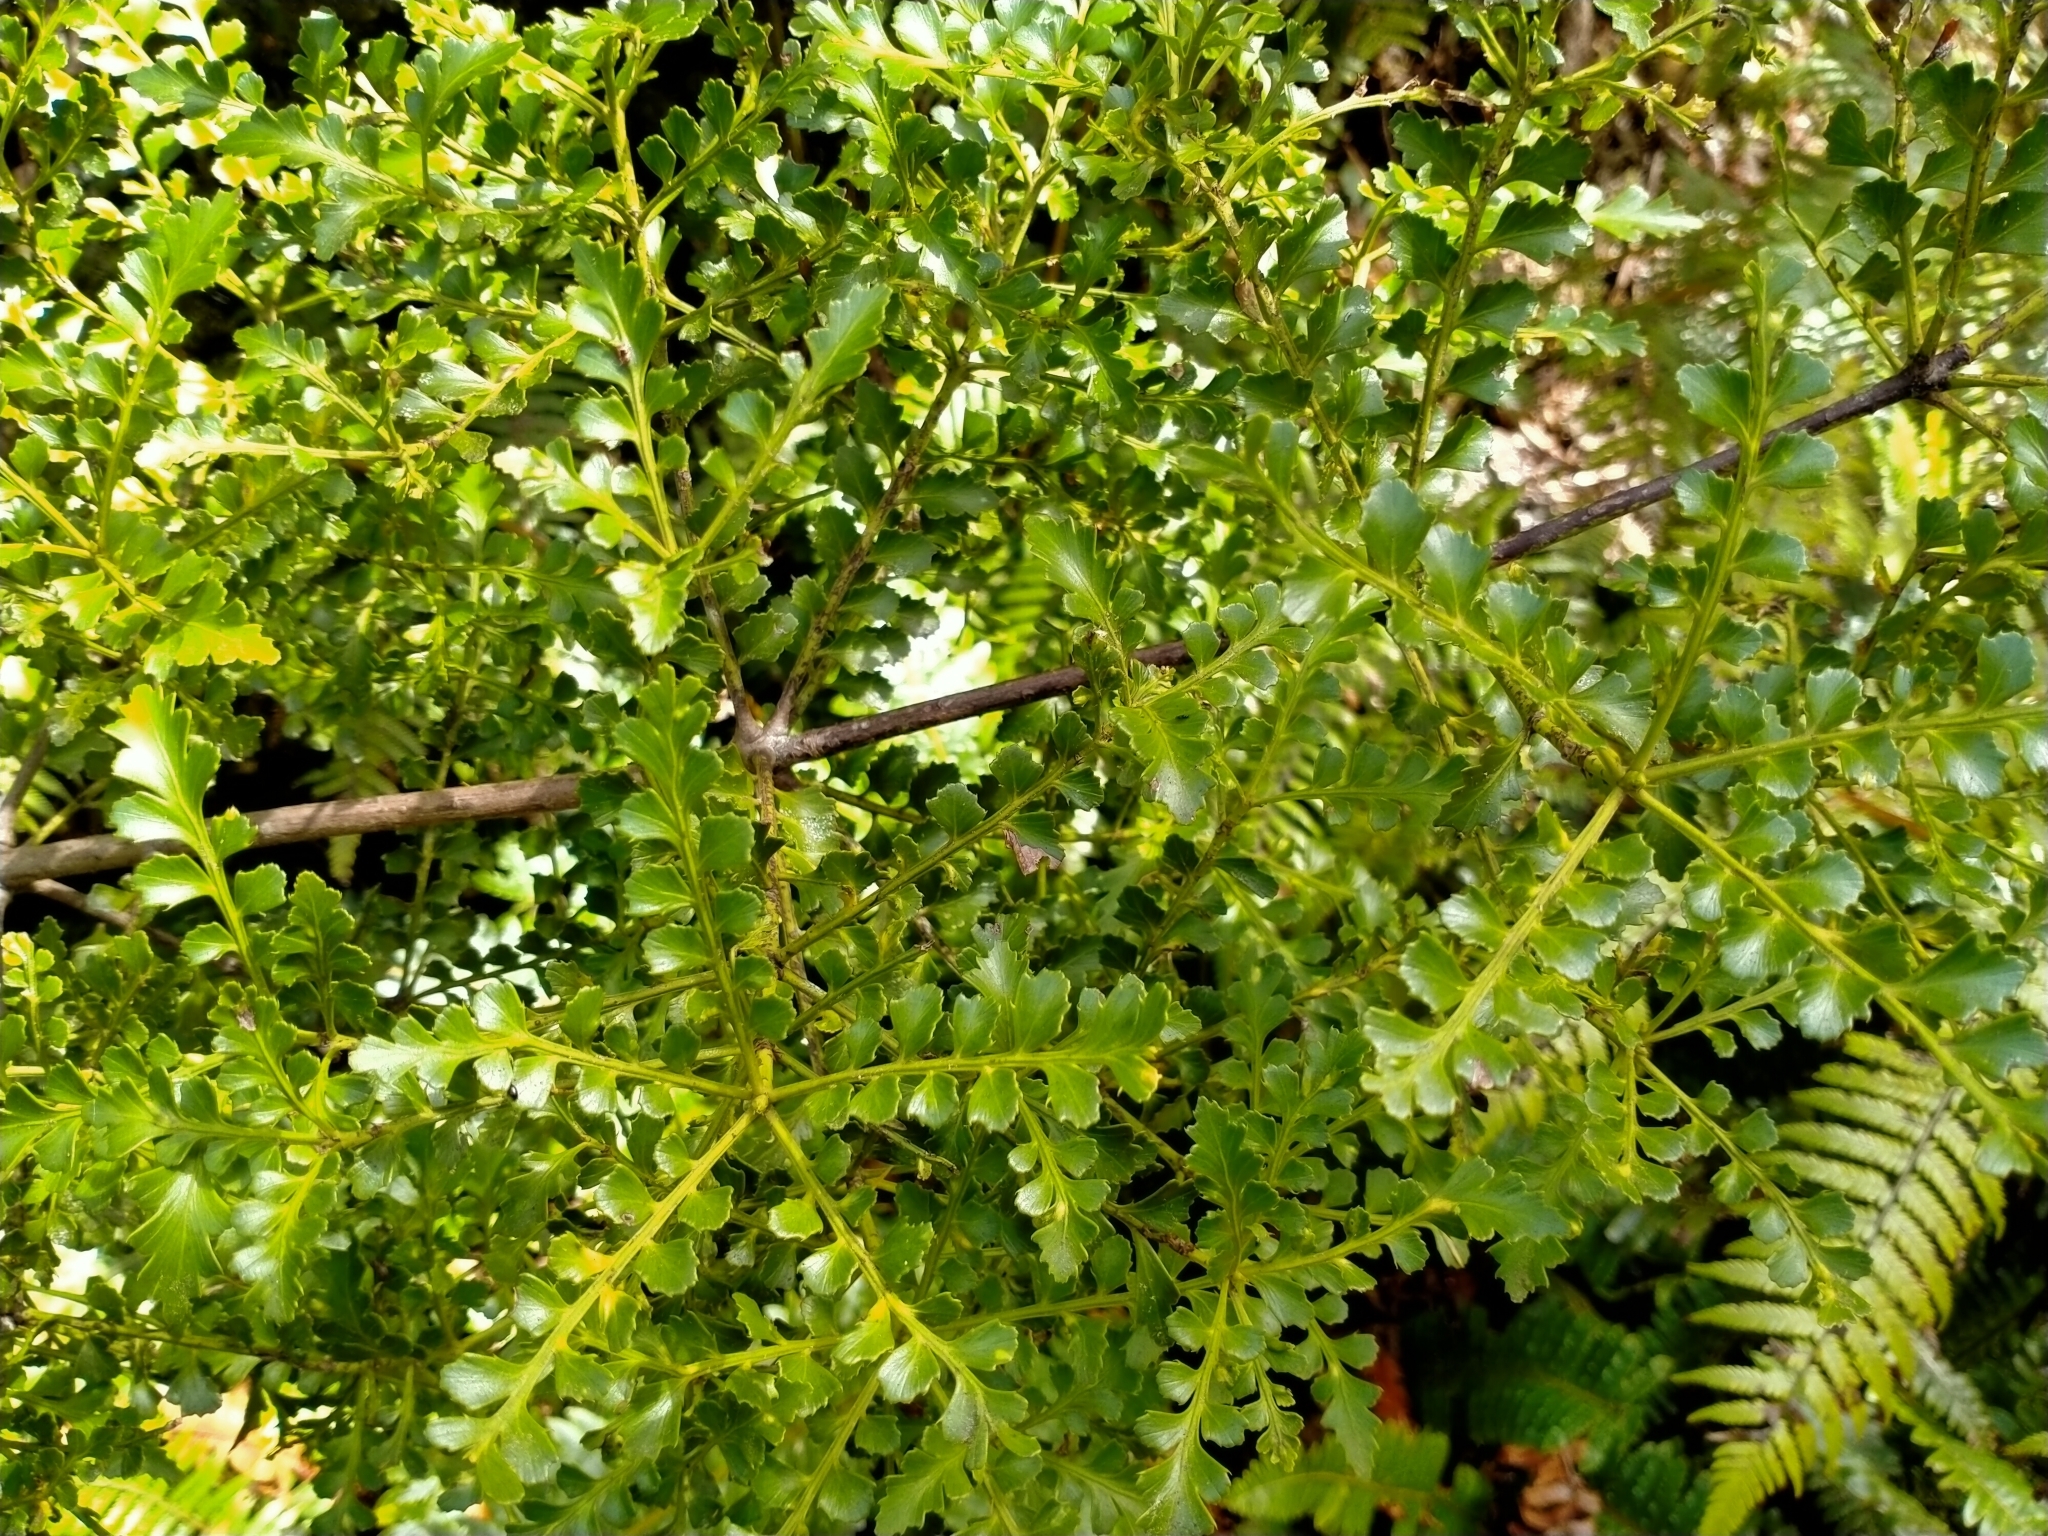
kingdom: Plantae
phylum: Tracheophyta
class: Pinopsida
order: Pinales
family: Phyllocladaceae
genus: Phyllocladus
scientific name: Phyllocladus trichomanoides
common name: Celery pine
